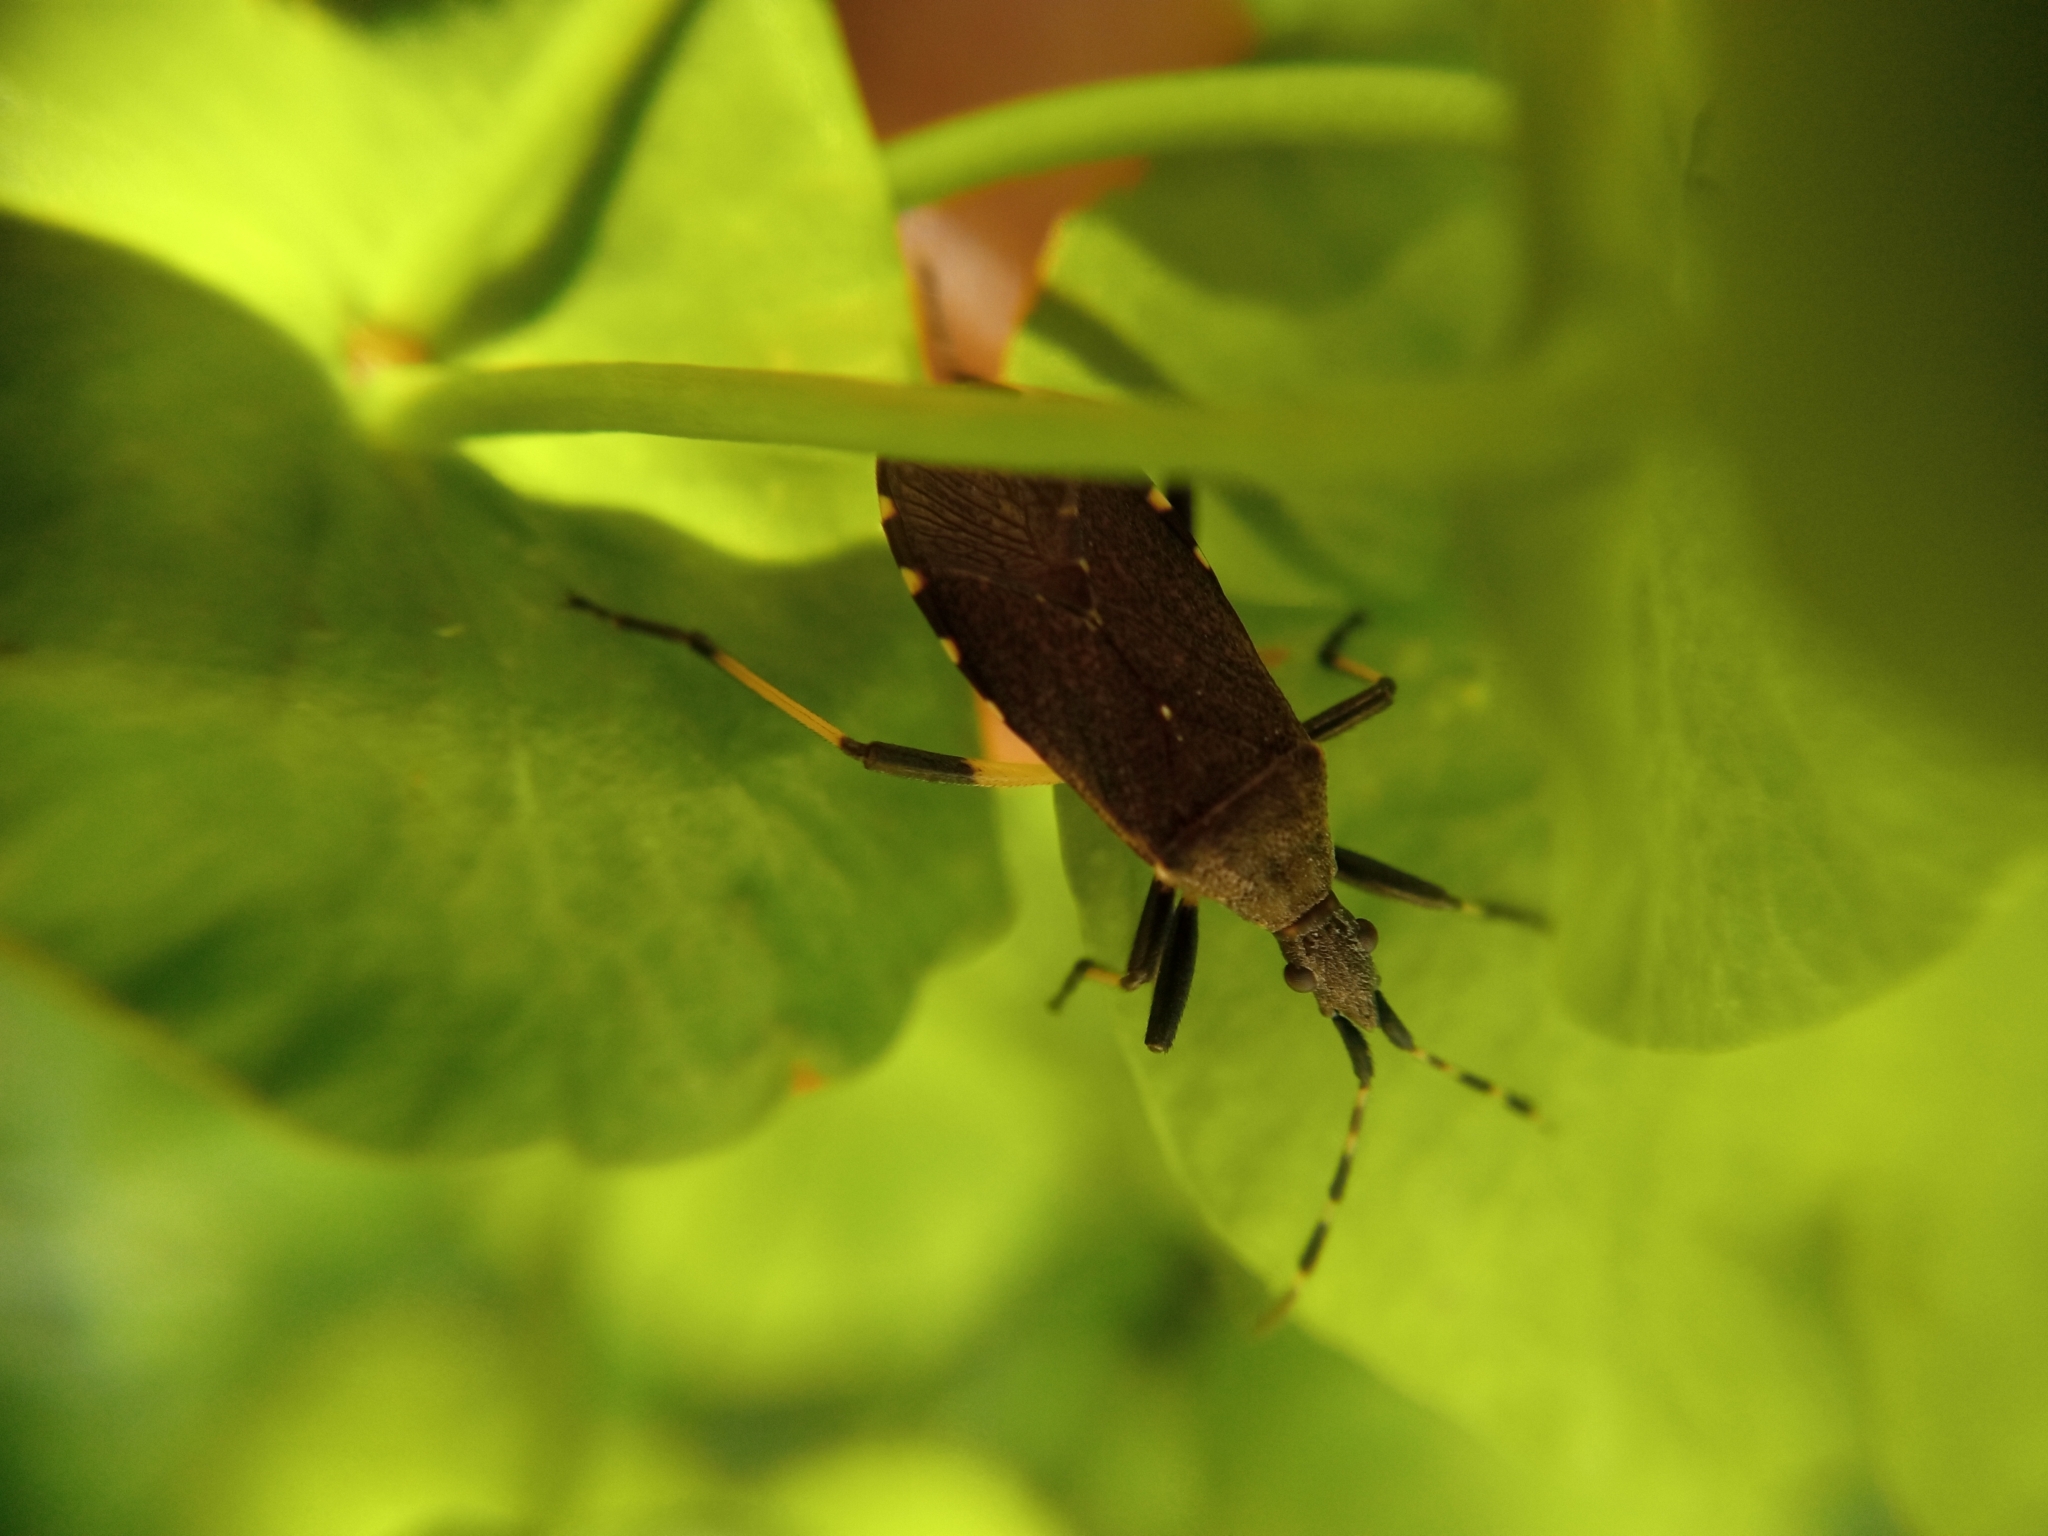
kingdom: Animalia
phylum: Arthropoda
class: Insecta
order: Hemiptera
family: Stenocephalidae
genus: Dicranocephalus
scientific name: Dicranocephalus medius
